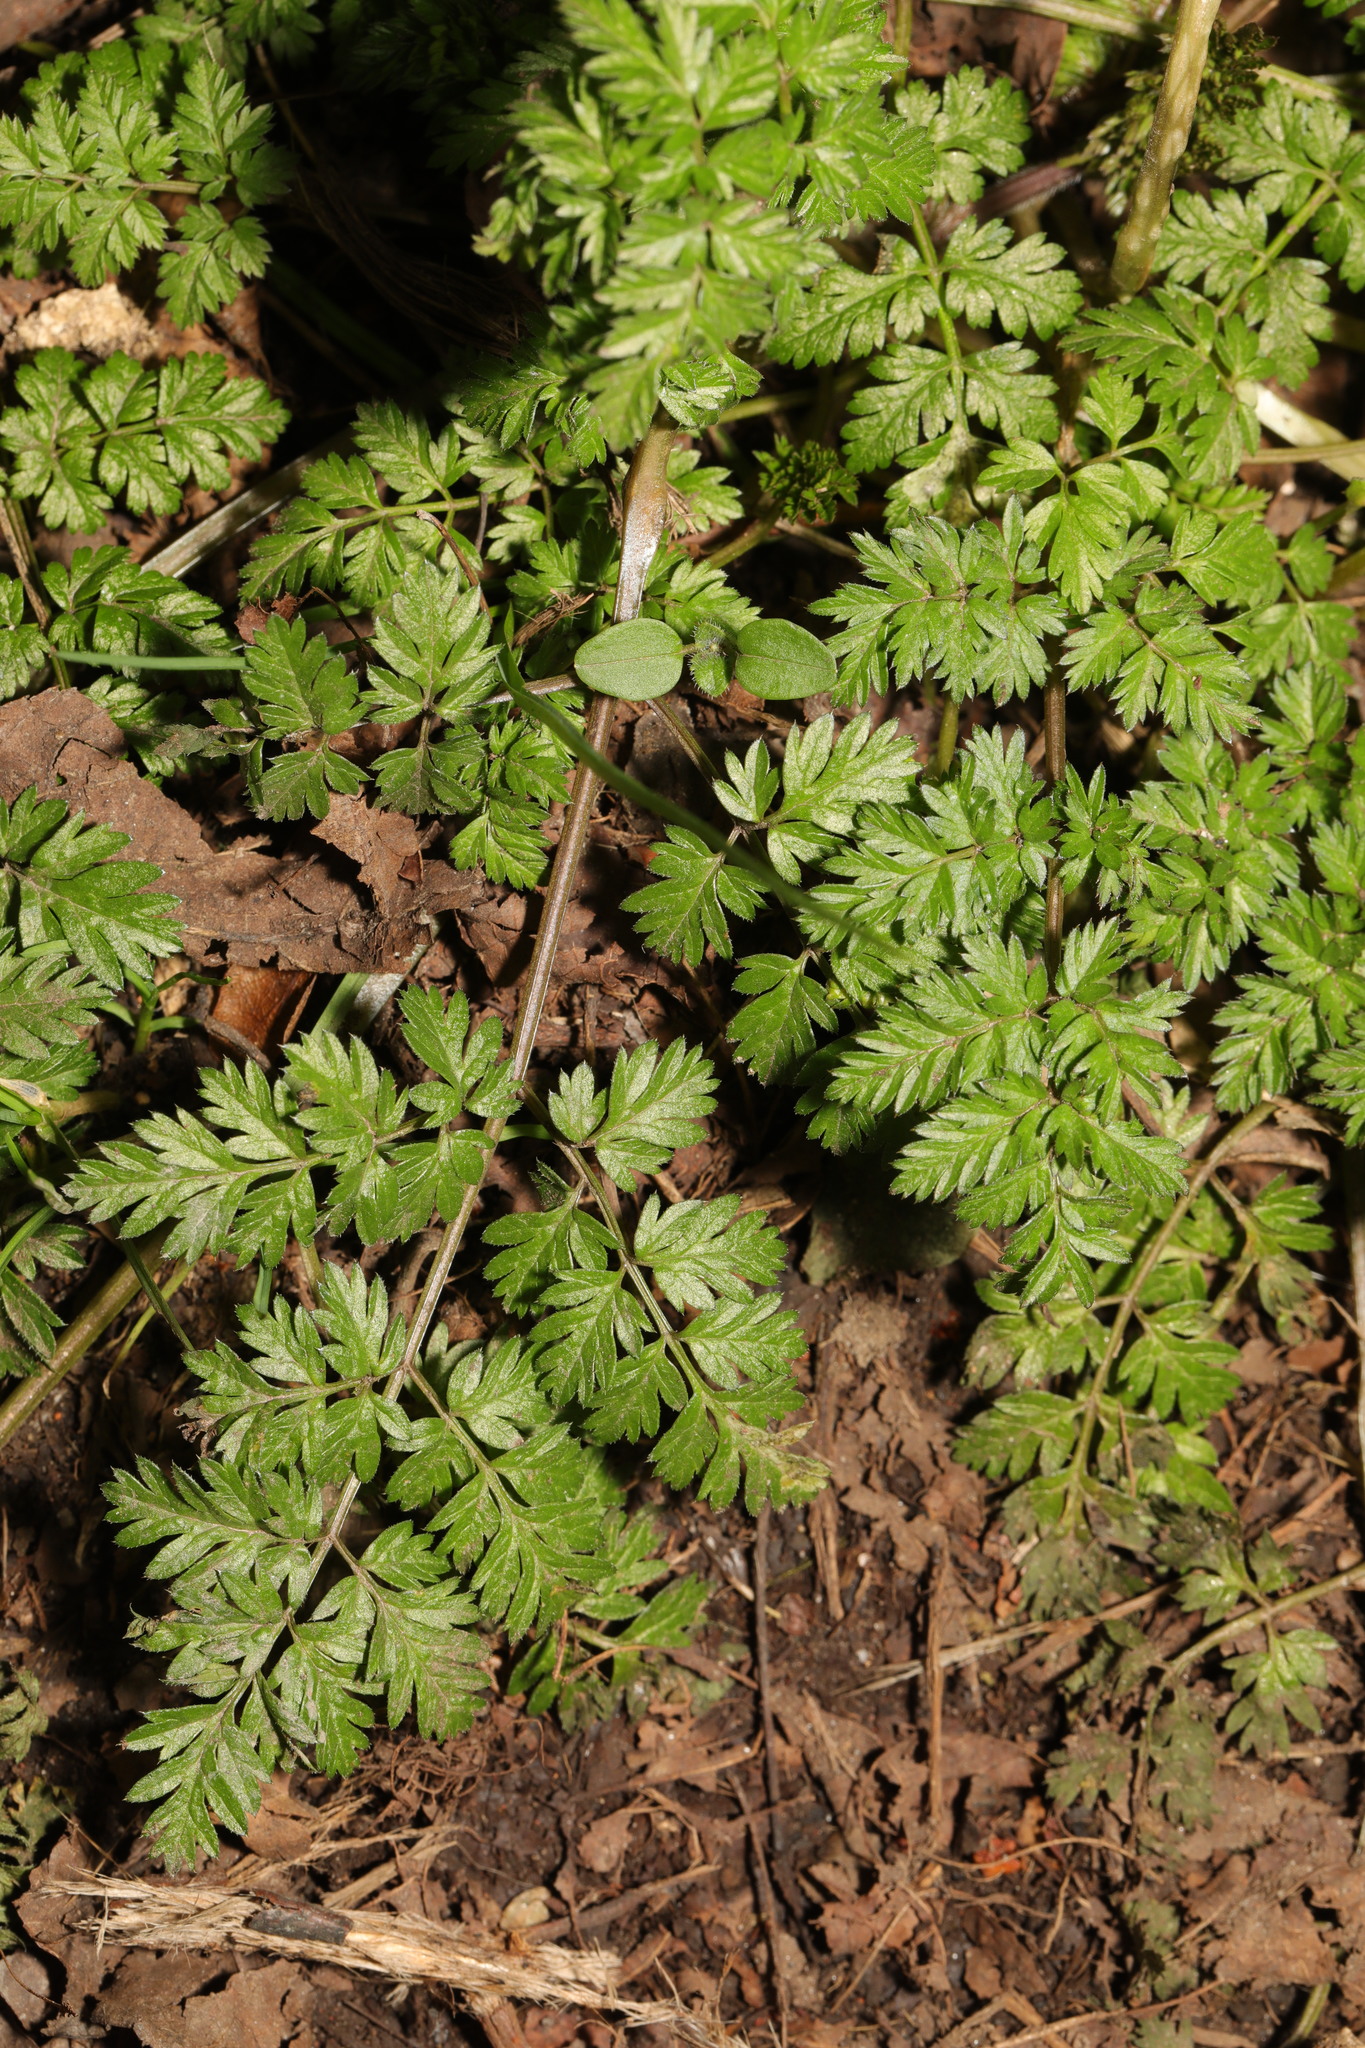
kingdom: Plantae
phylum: Tracheophyta
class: Magnoliopsida
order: Apiales
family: Apiaceae
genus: Anthriscus
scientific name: Anthriscus sylvestris
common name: Cow parsley
